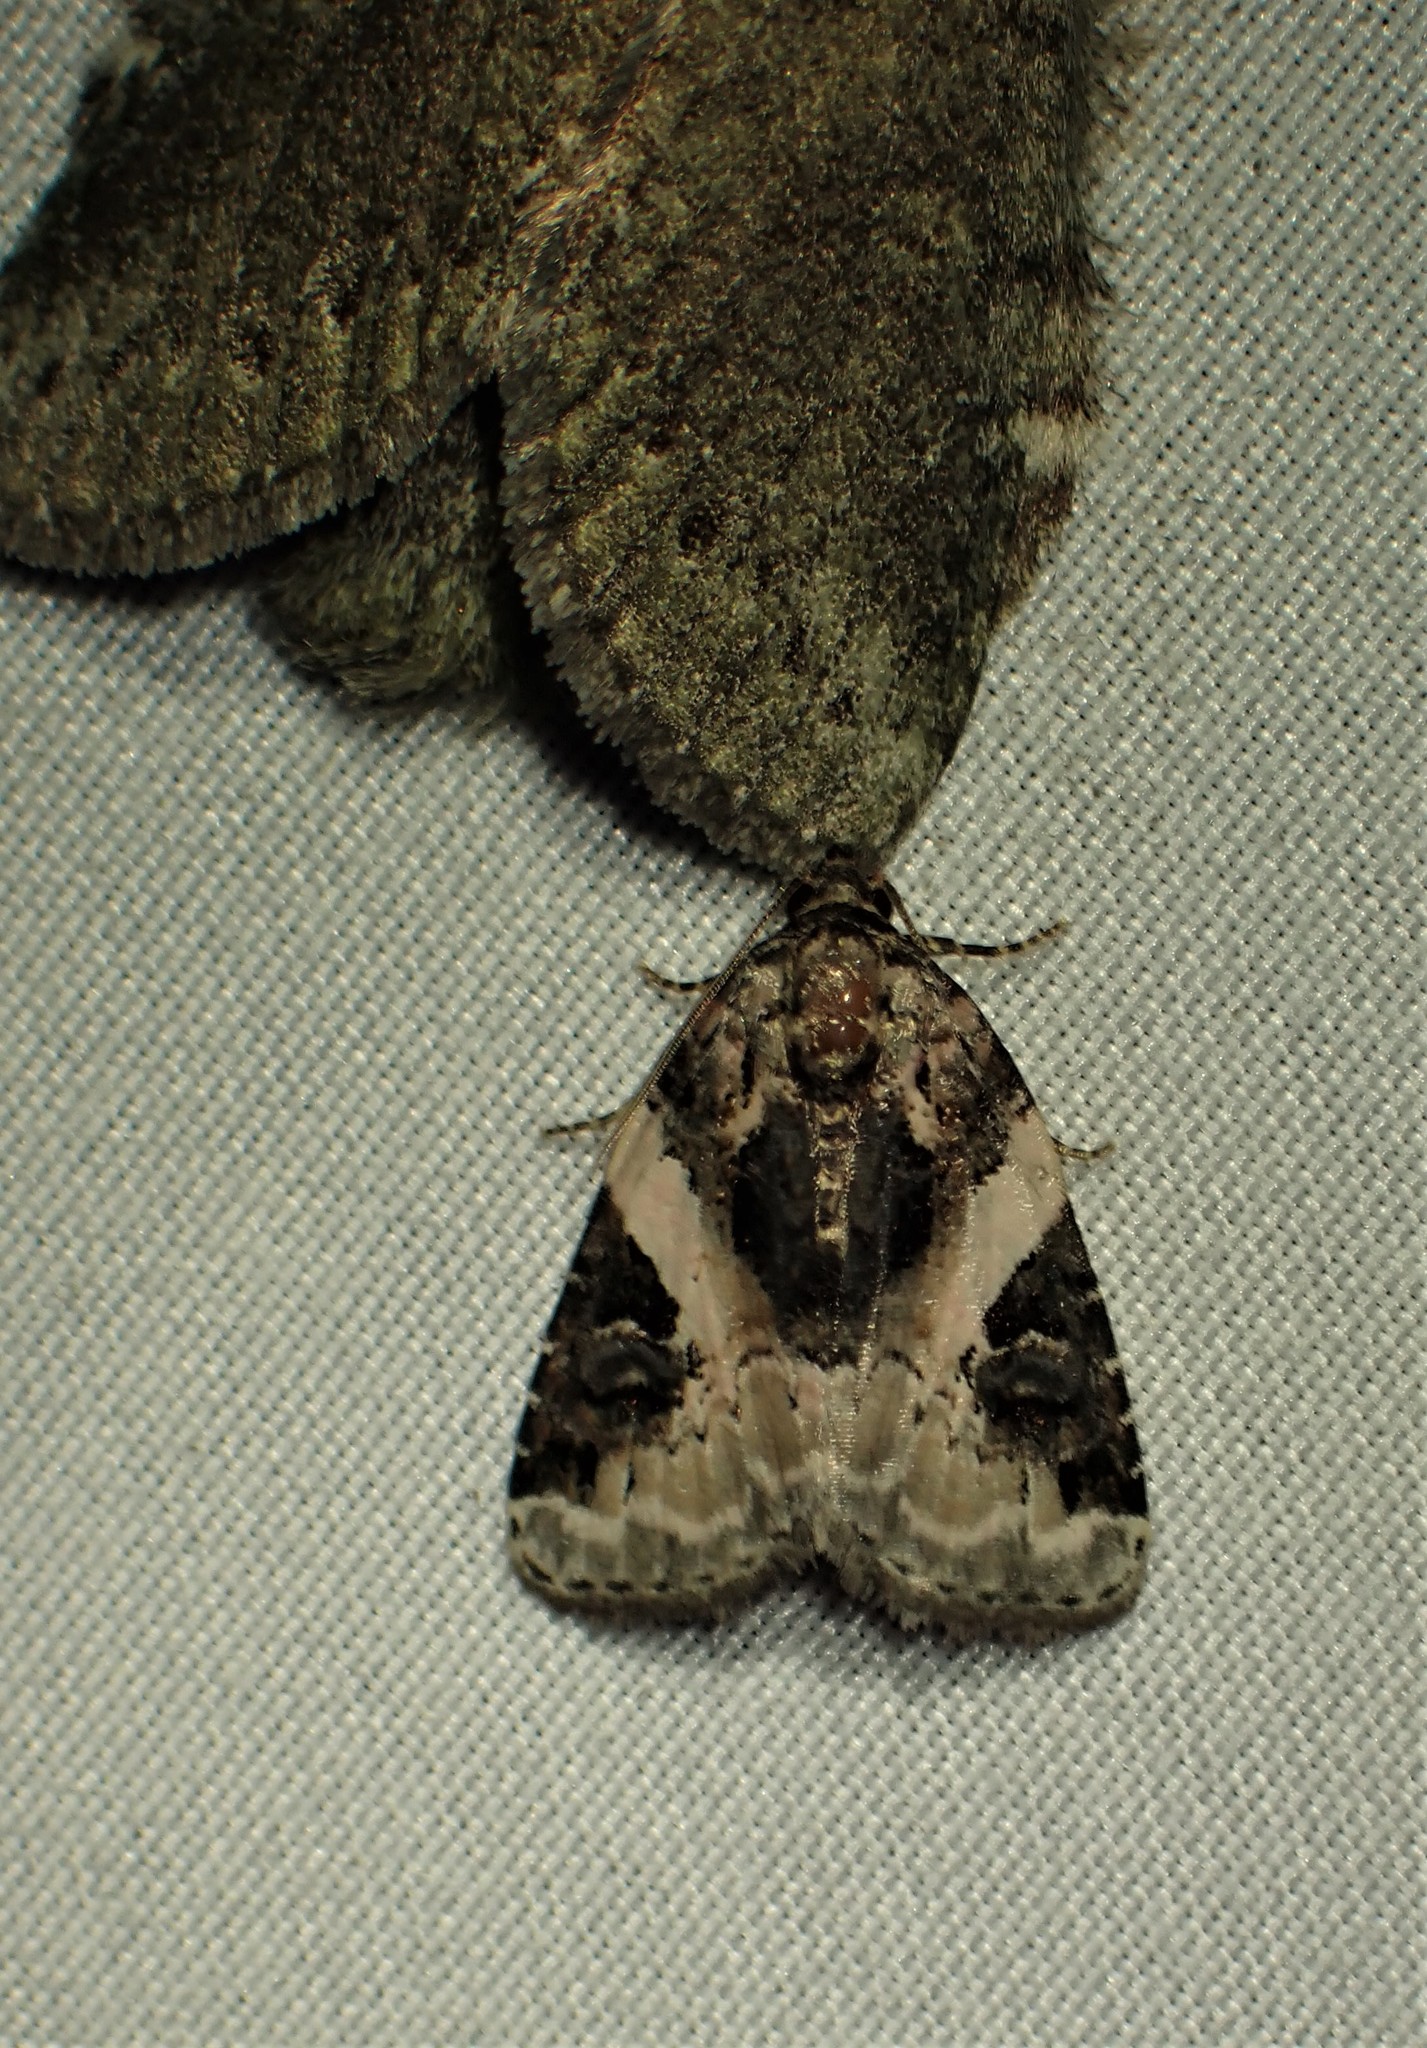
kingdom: Animalia
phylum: Arthropoda
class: Insecta
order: Lepidoptera
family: Noctuidae
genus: Pseudeustrotia
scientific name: Pseudeustrotia carneola
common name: Pink-barred lithacodia moth
